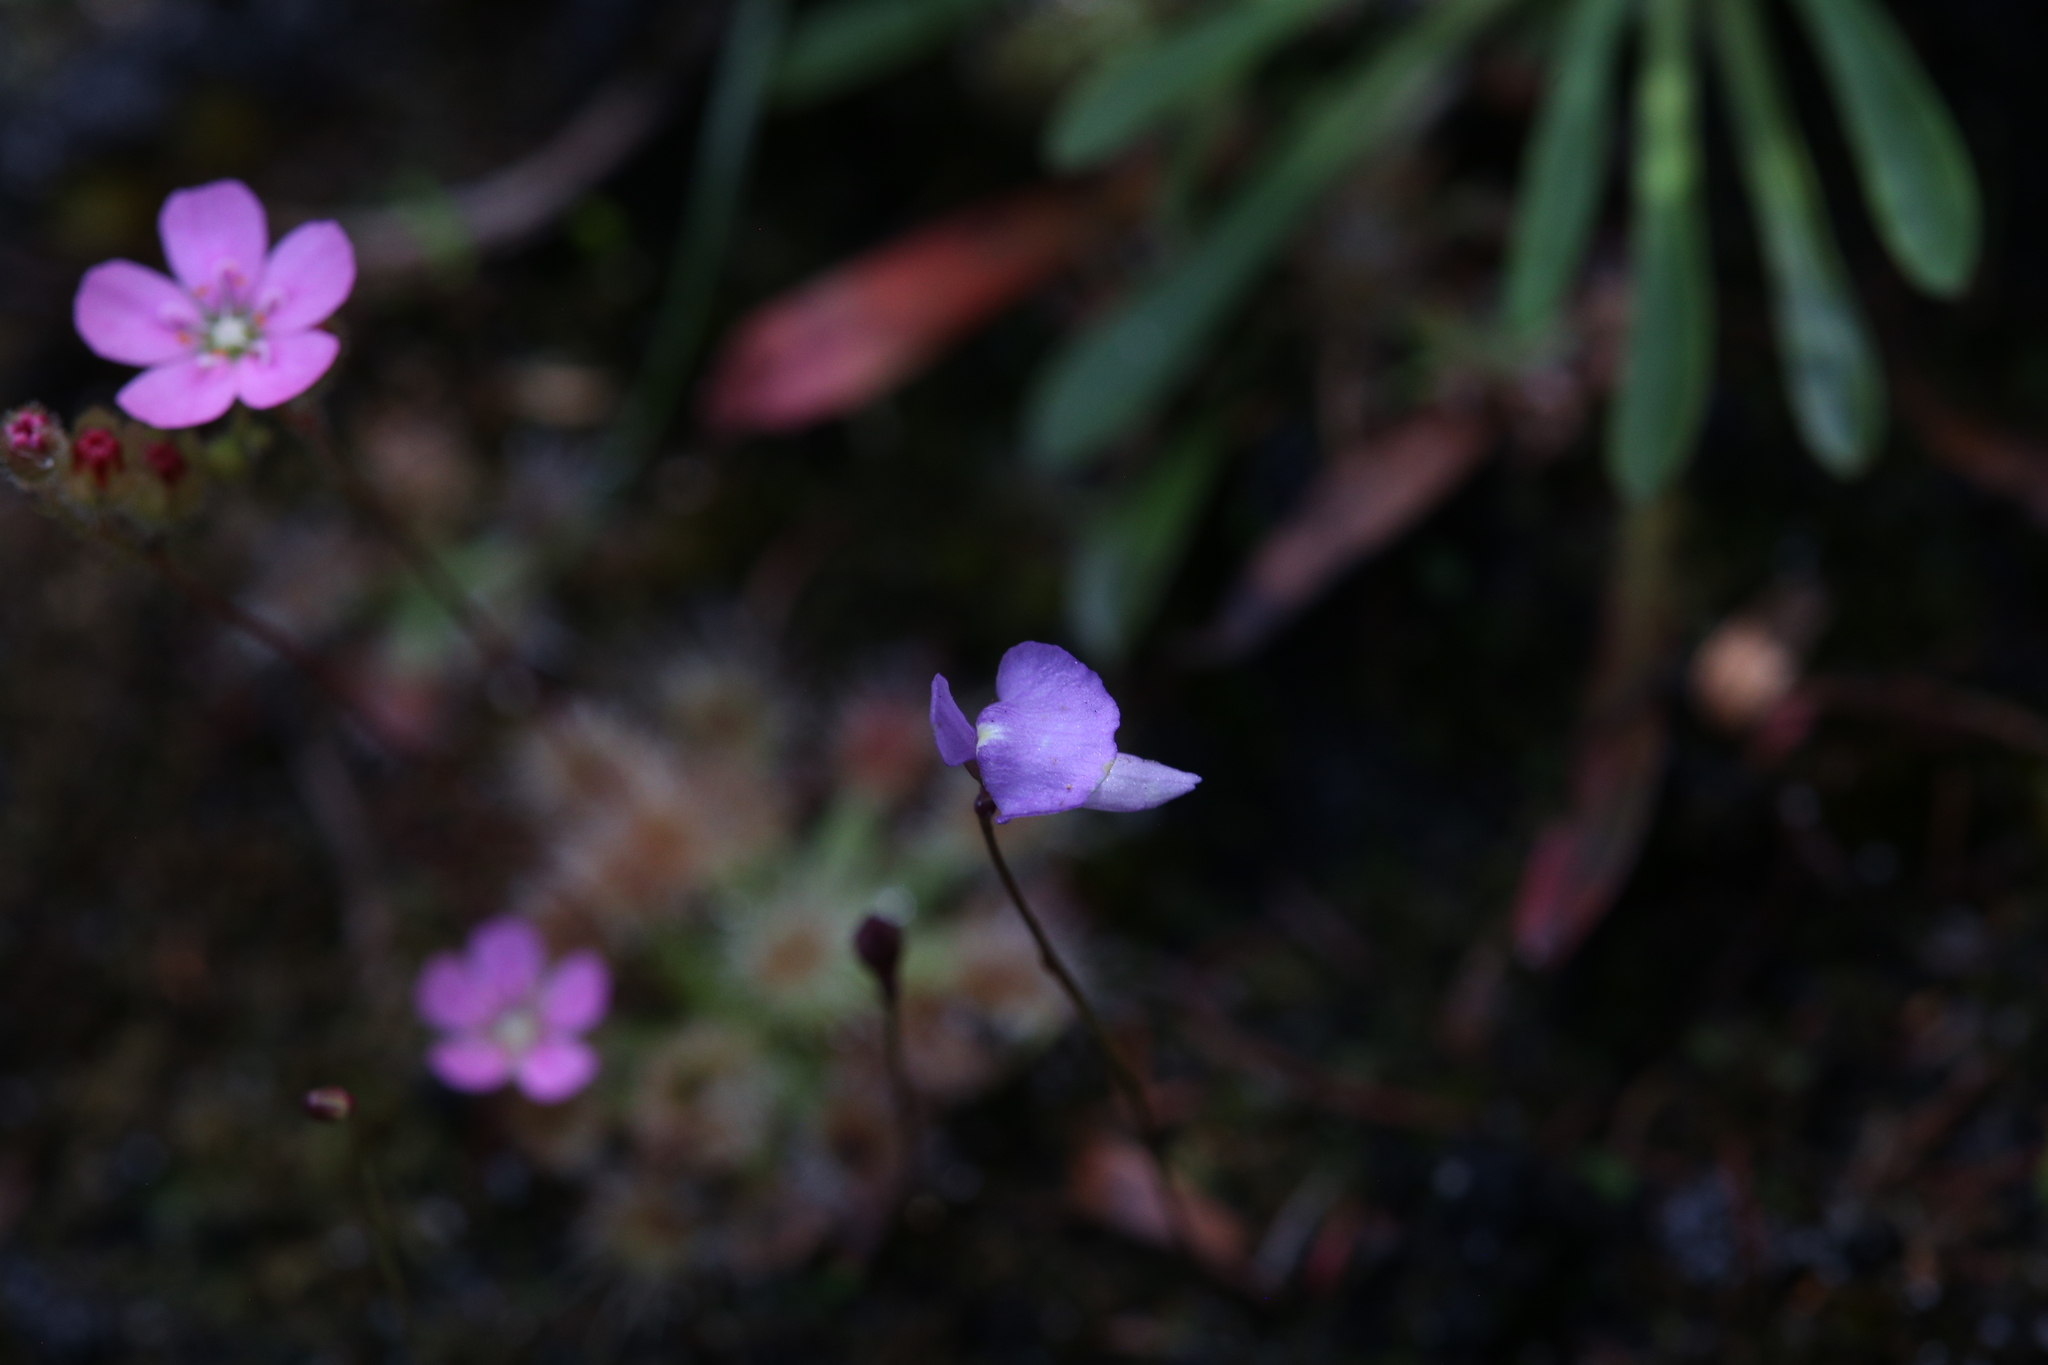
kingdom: Plantae
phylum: Tracheophyta
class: Magnoliopsida
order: Lamiales
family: Lentibulariaceae
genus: Utricularia
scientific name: Utricularia simplex
